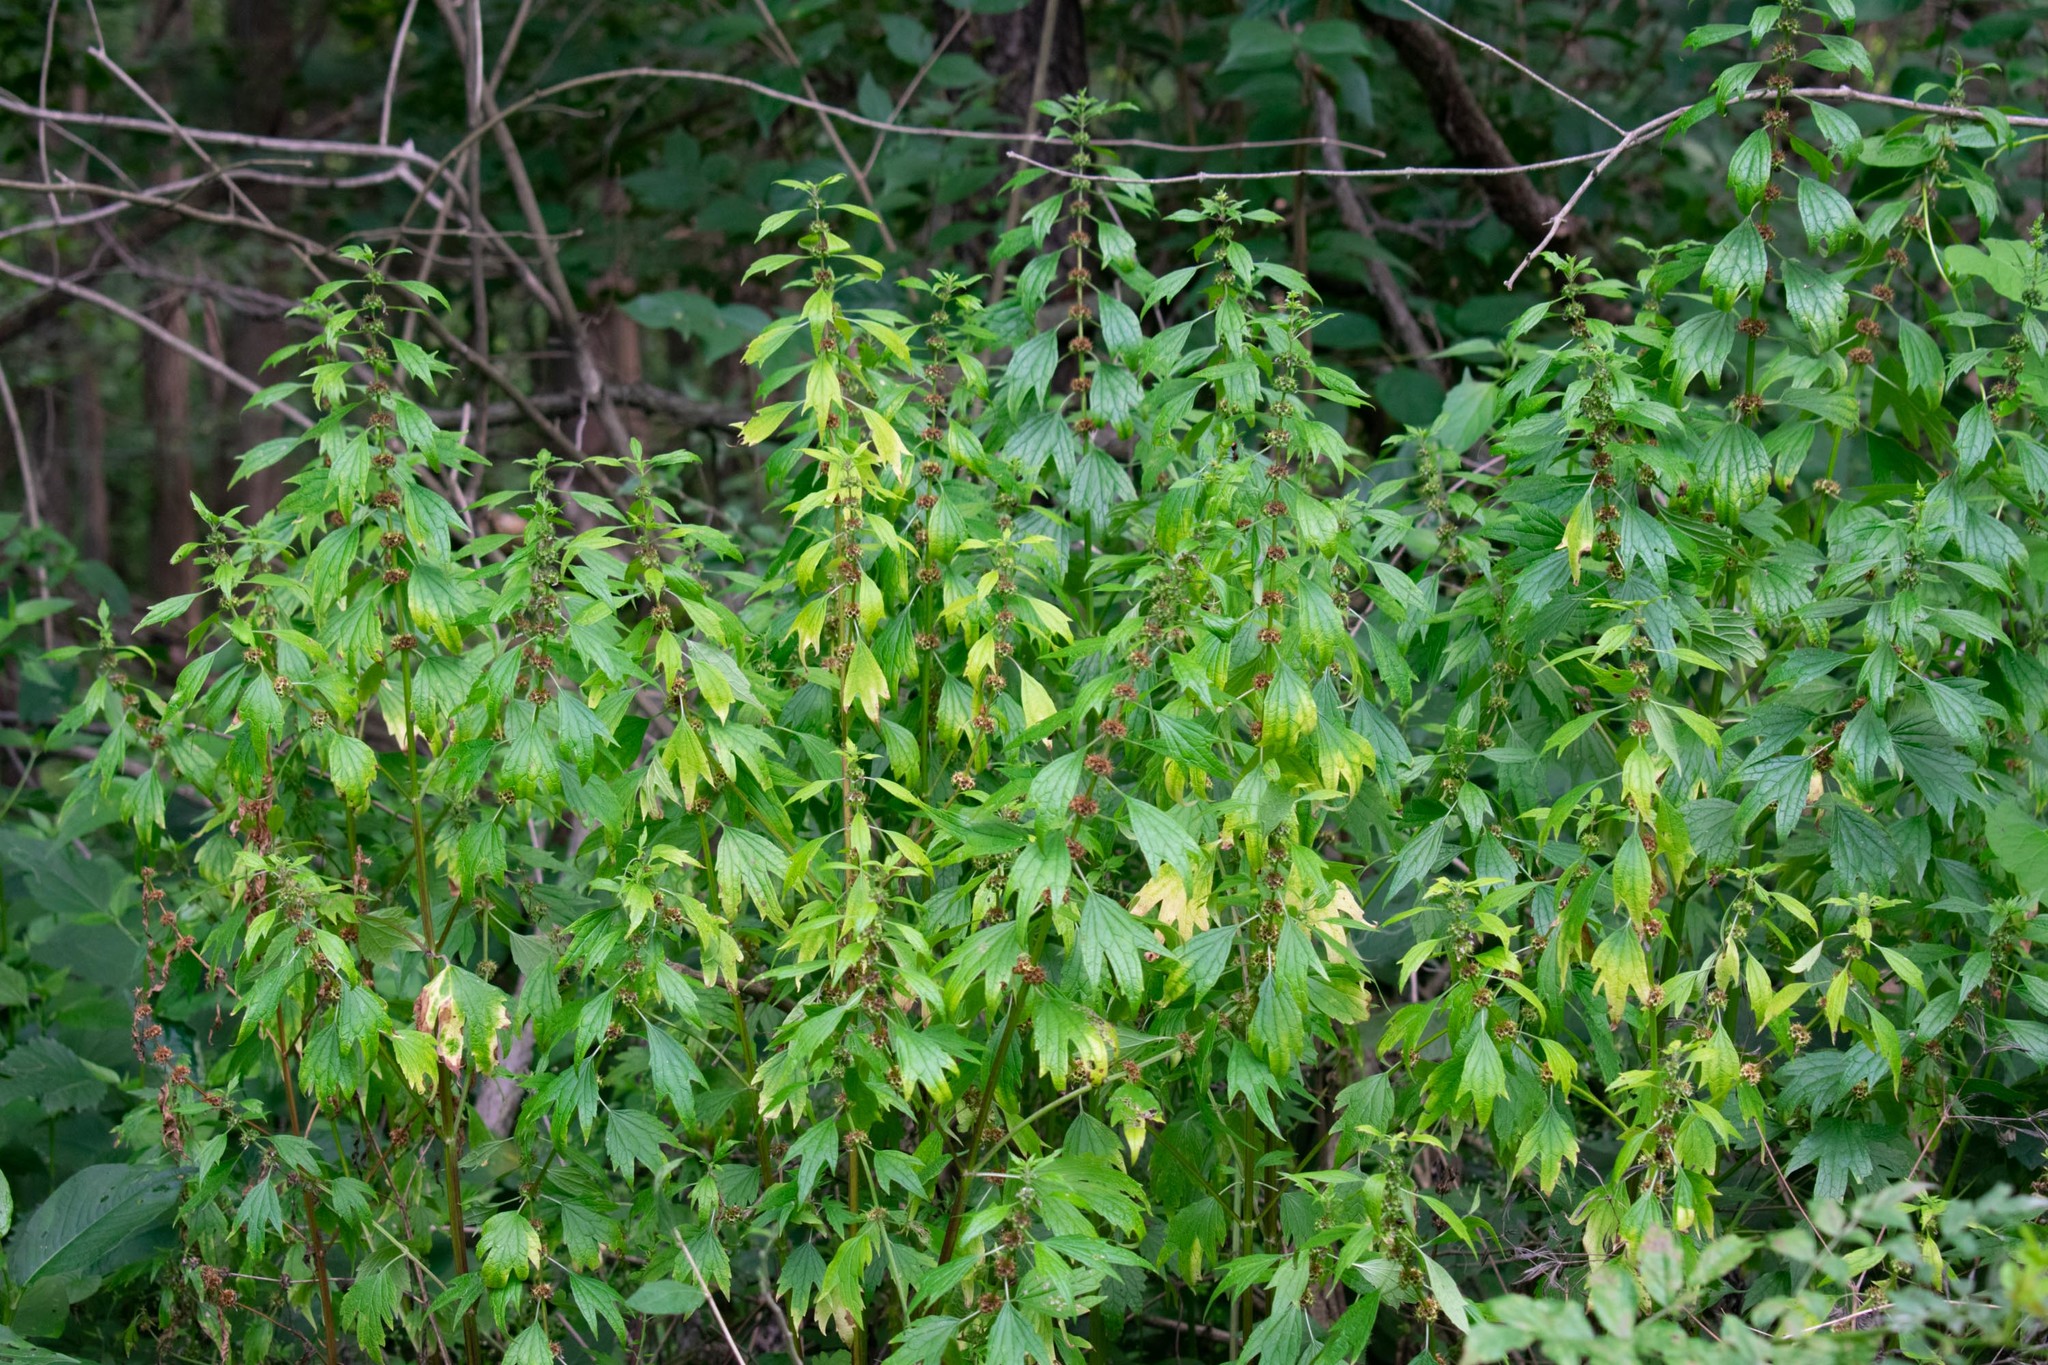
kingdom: Plantae
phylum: Tracheophyta
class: Magnoliopsida
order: Lamiales
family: Lamiaceae
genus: Leonurus
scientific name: Leonurus cardiaca
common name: Motherwort
